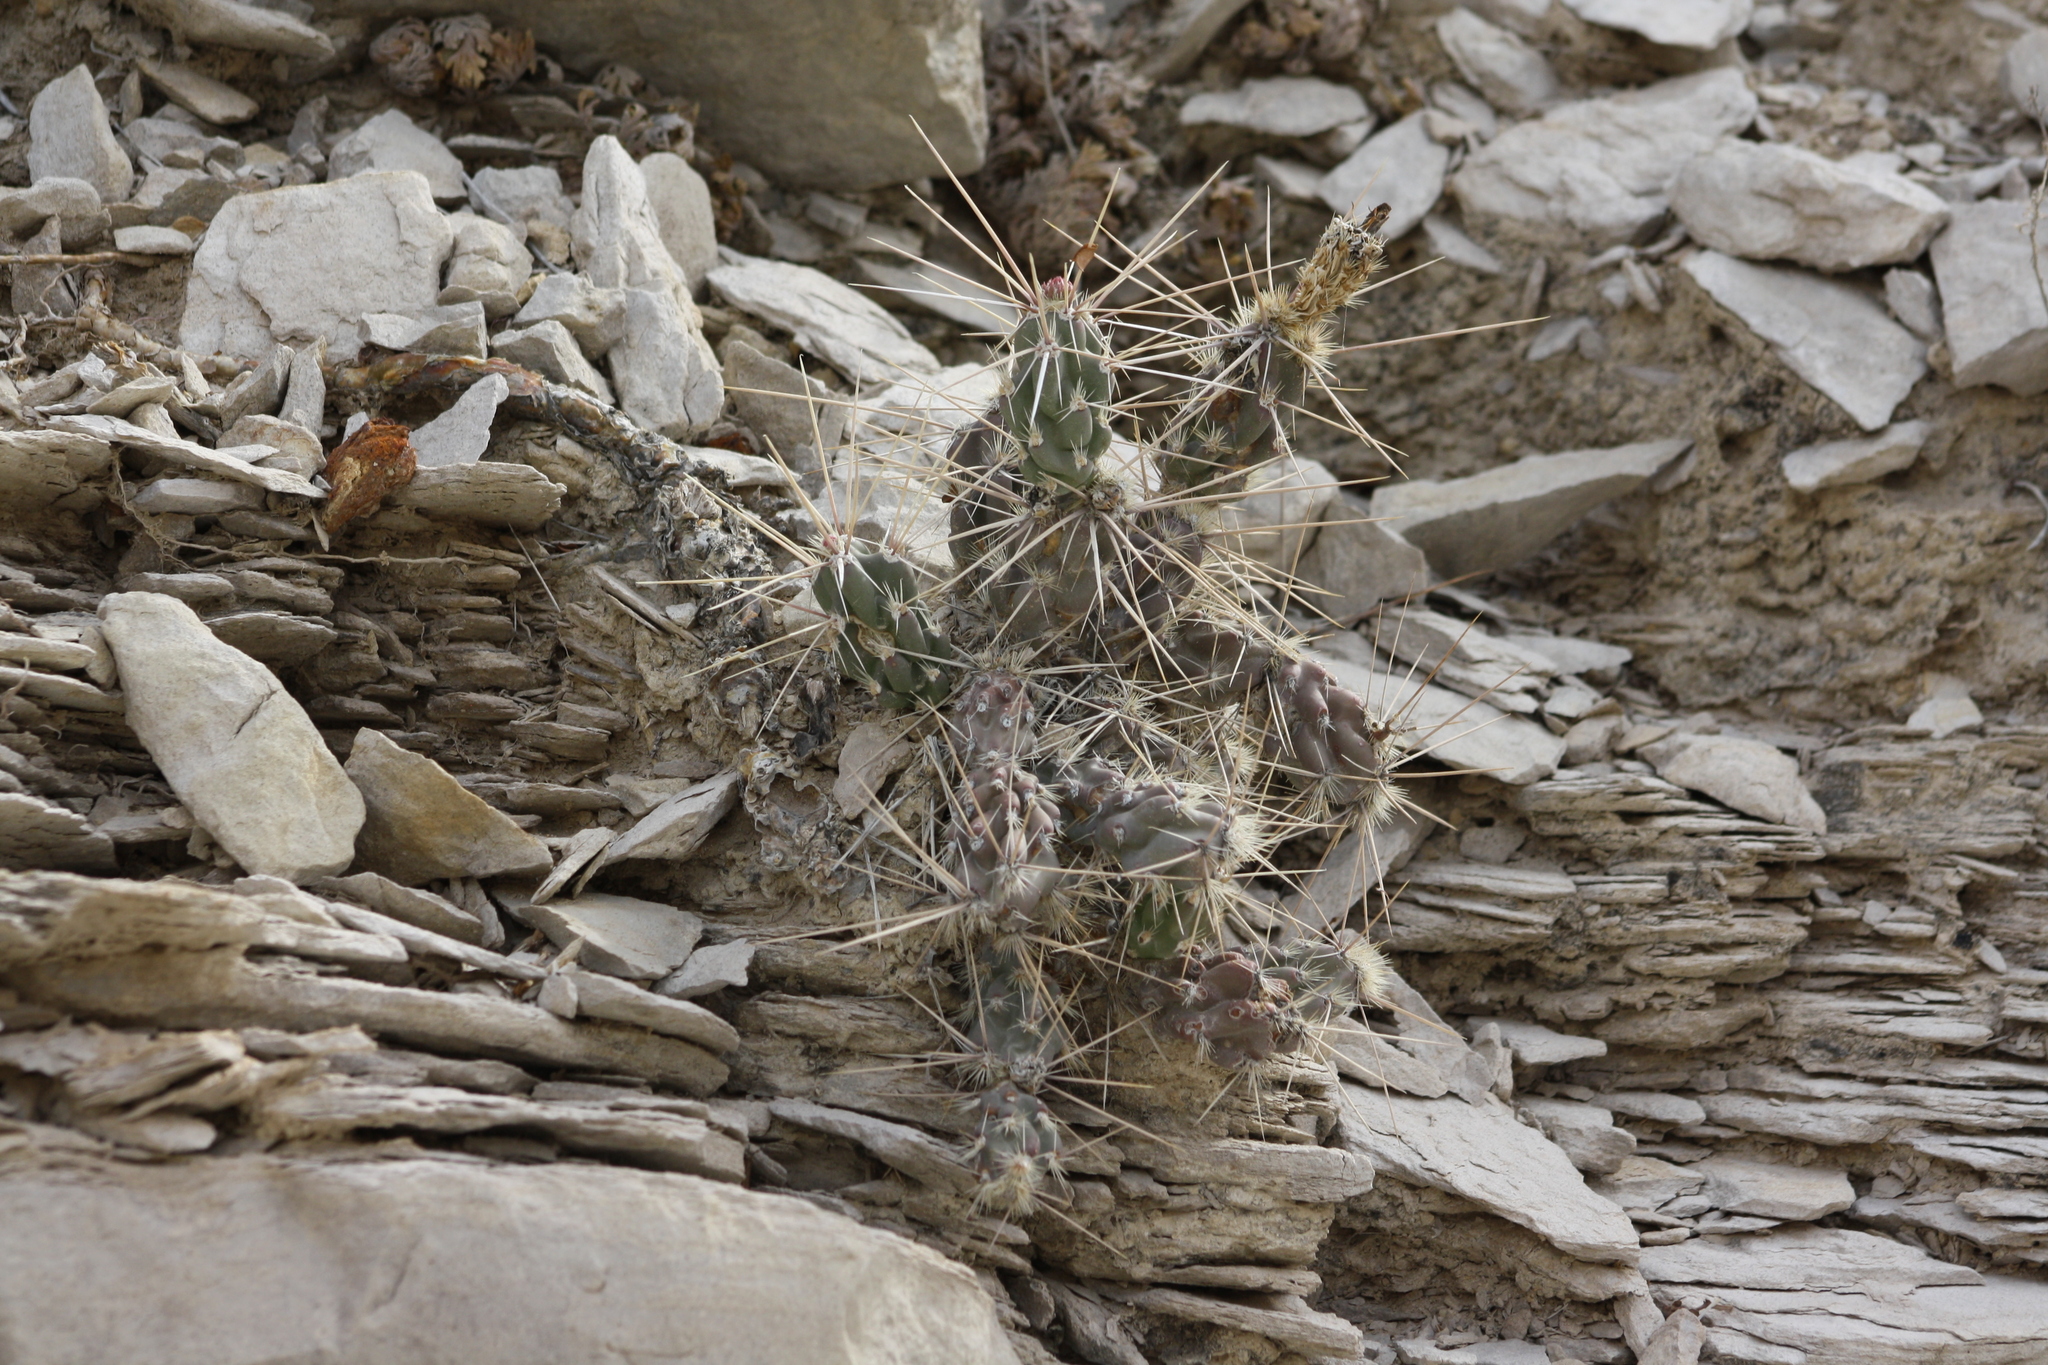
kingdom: Plantae
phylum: Tracheophyta
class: Magnoliopsida
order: Caryophyllales
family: Cactaceae
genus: Grusonia
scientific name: Grusonia aggeria
